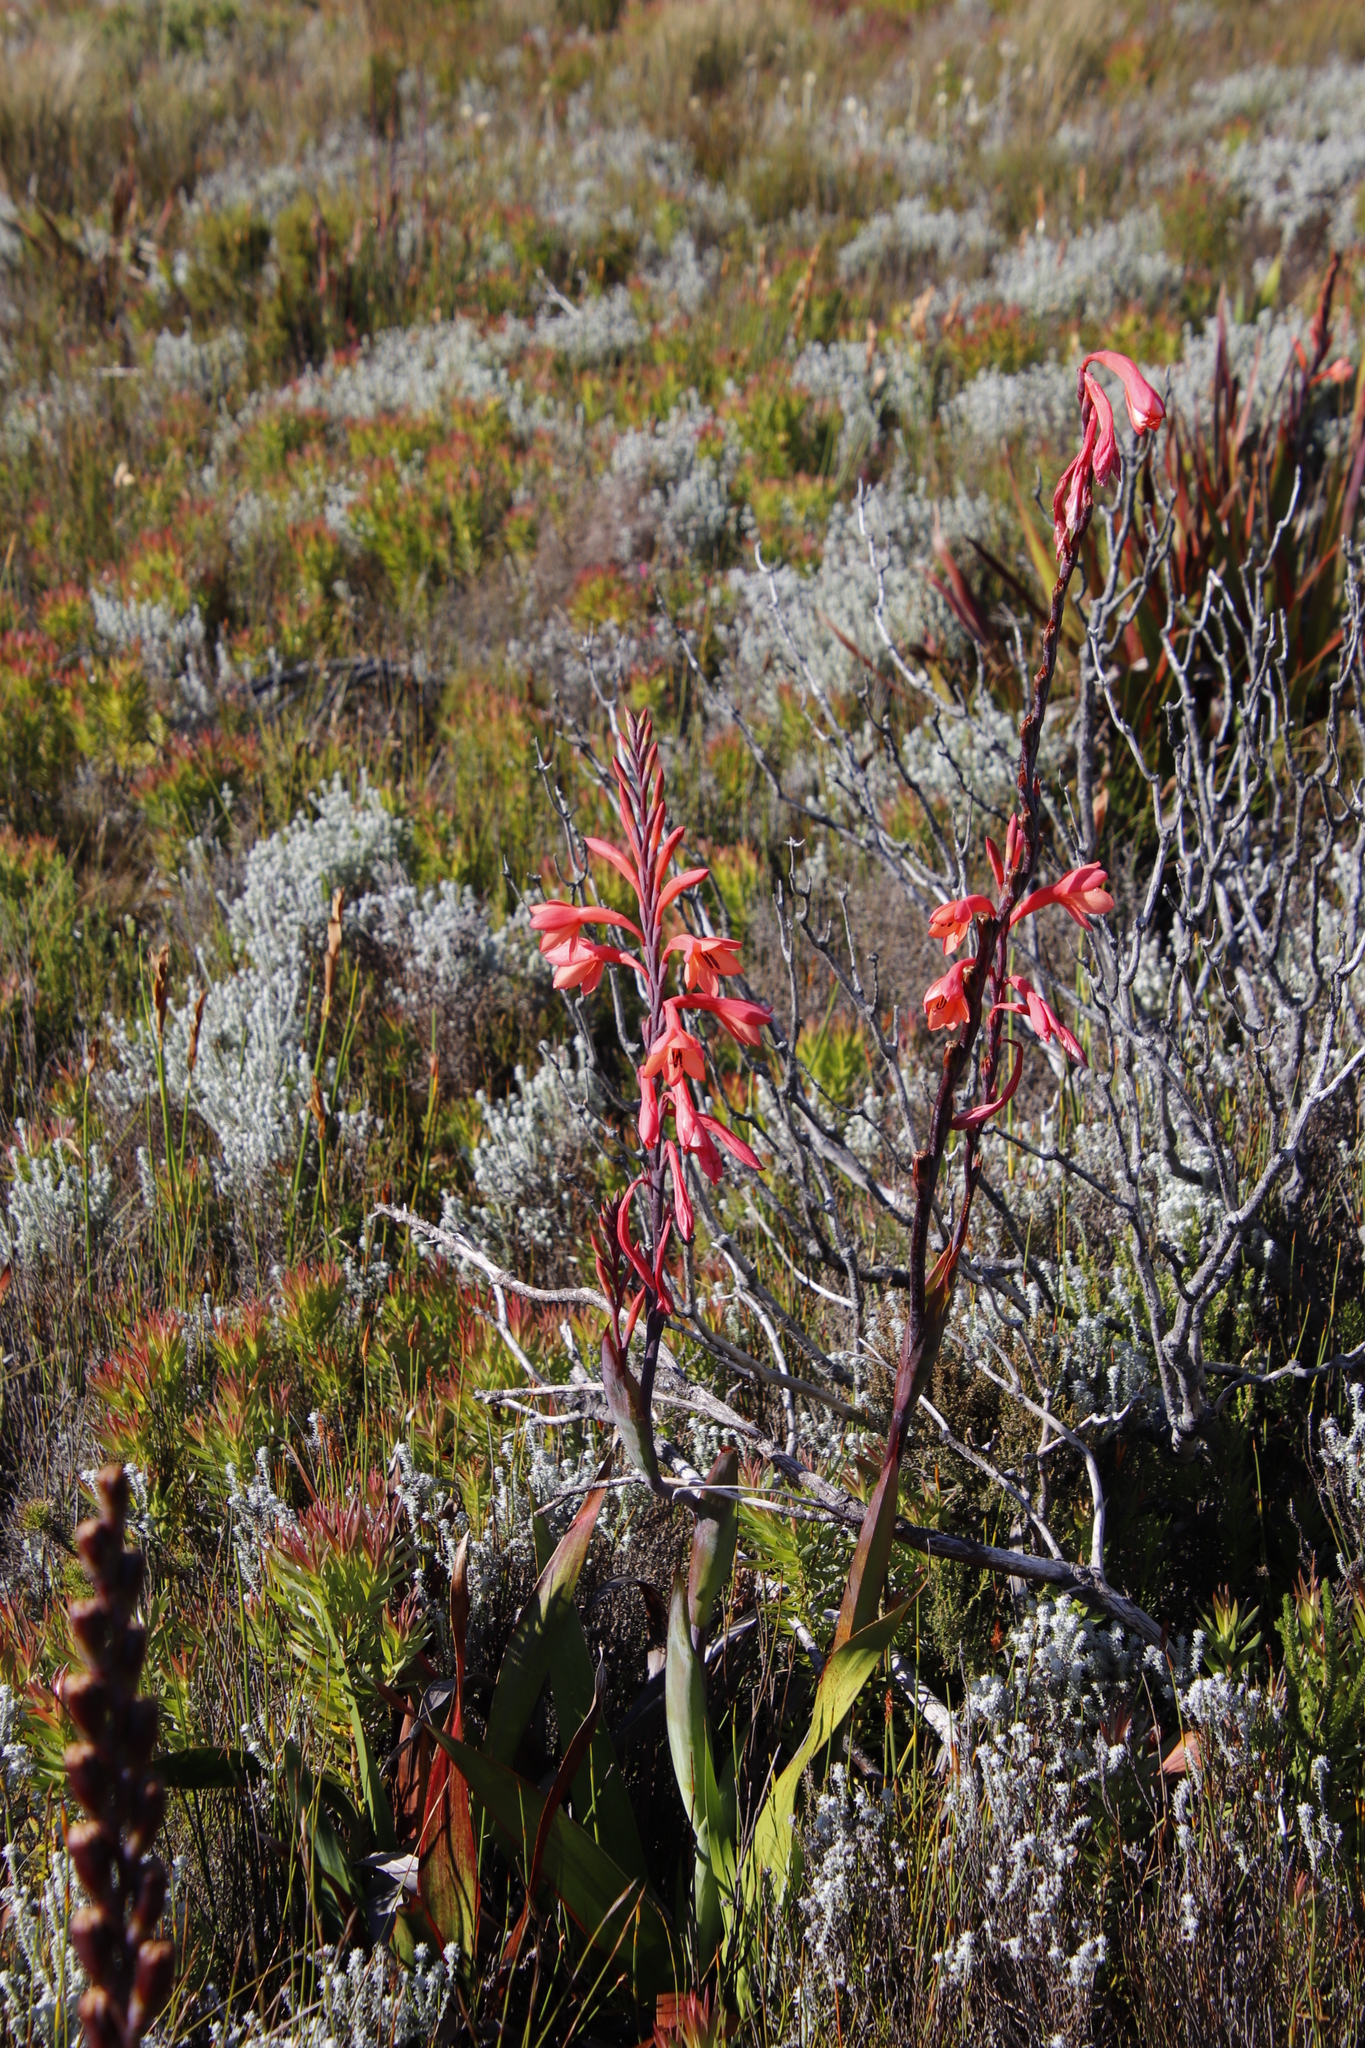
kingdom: Plantae
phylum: Tracheophyta
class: Liliopsida
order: Asparagales
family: Iridaceae
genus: Watsonia
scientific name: Watsonia tabularis
